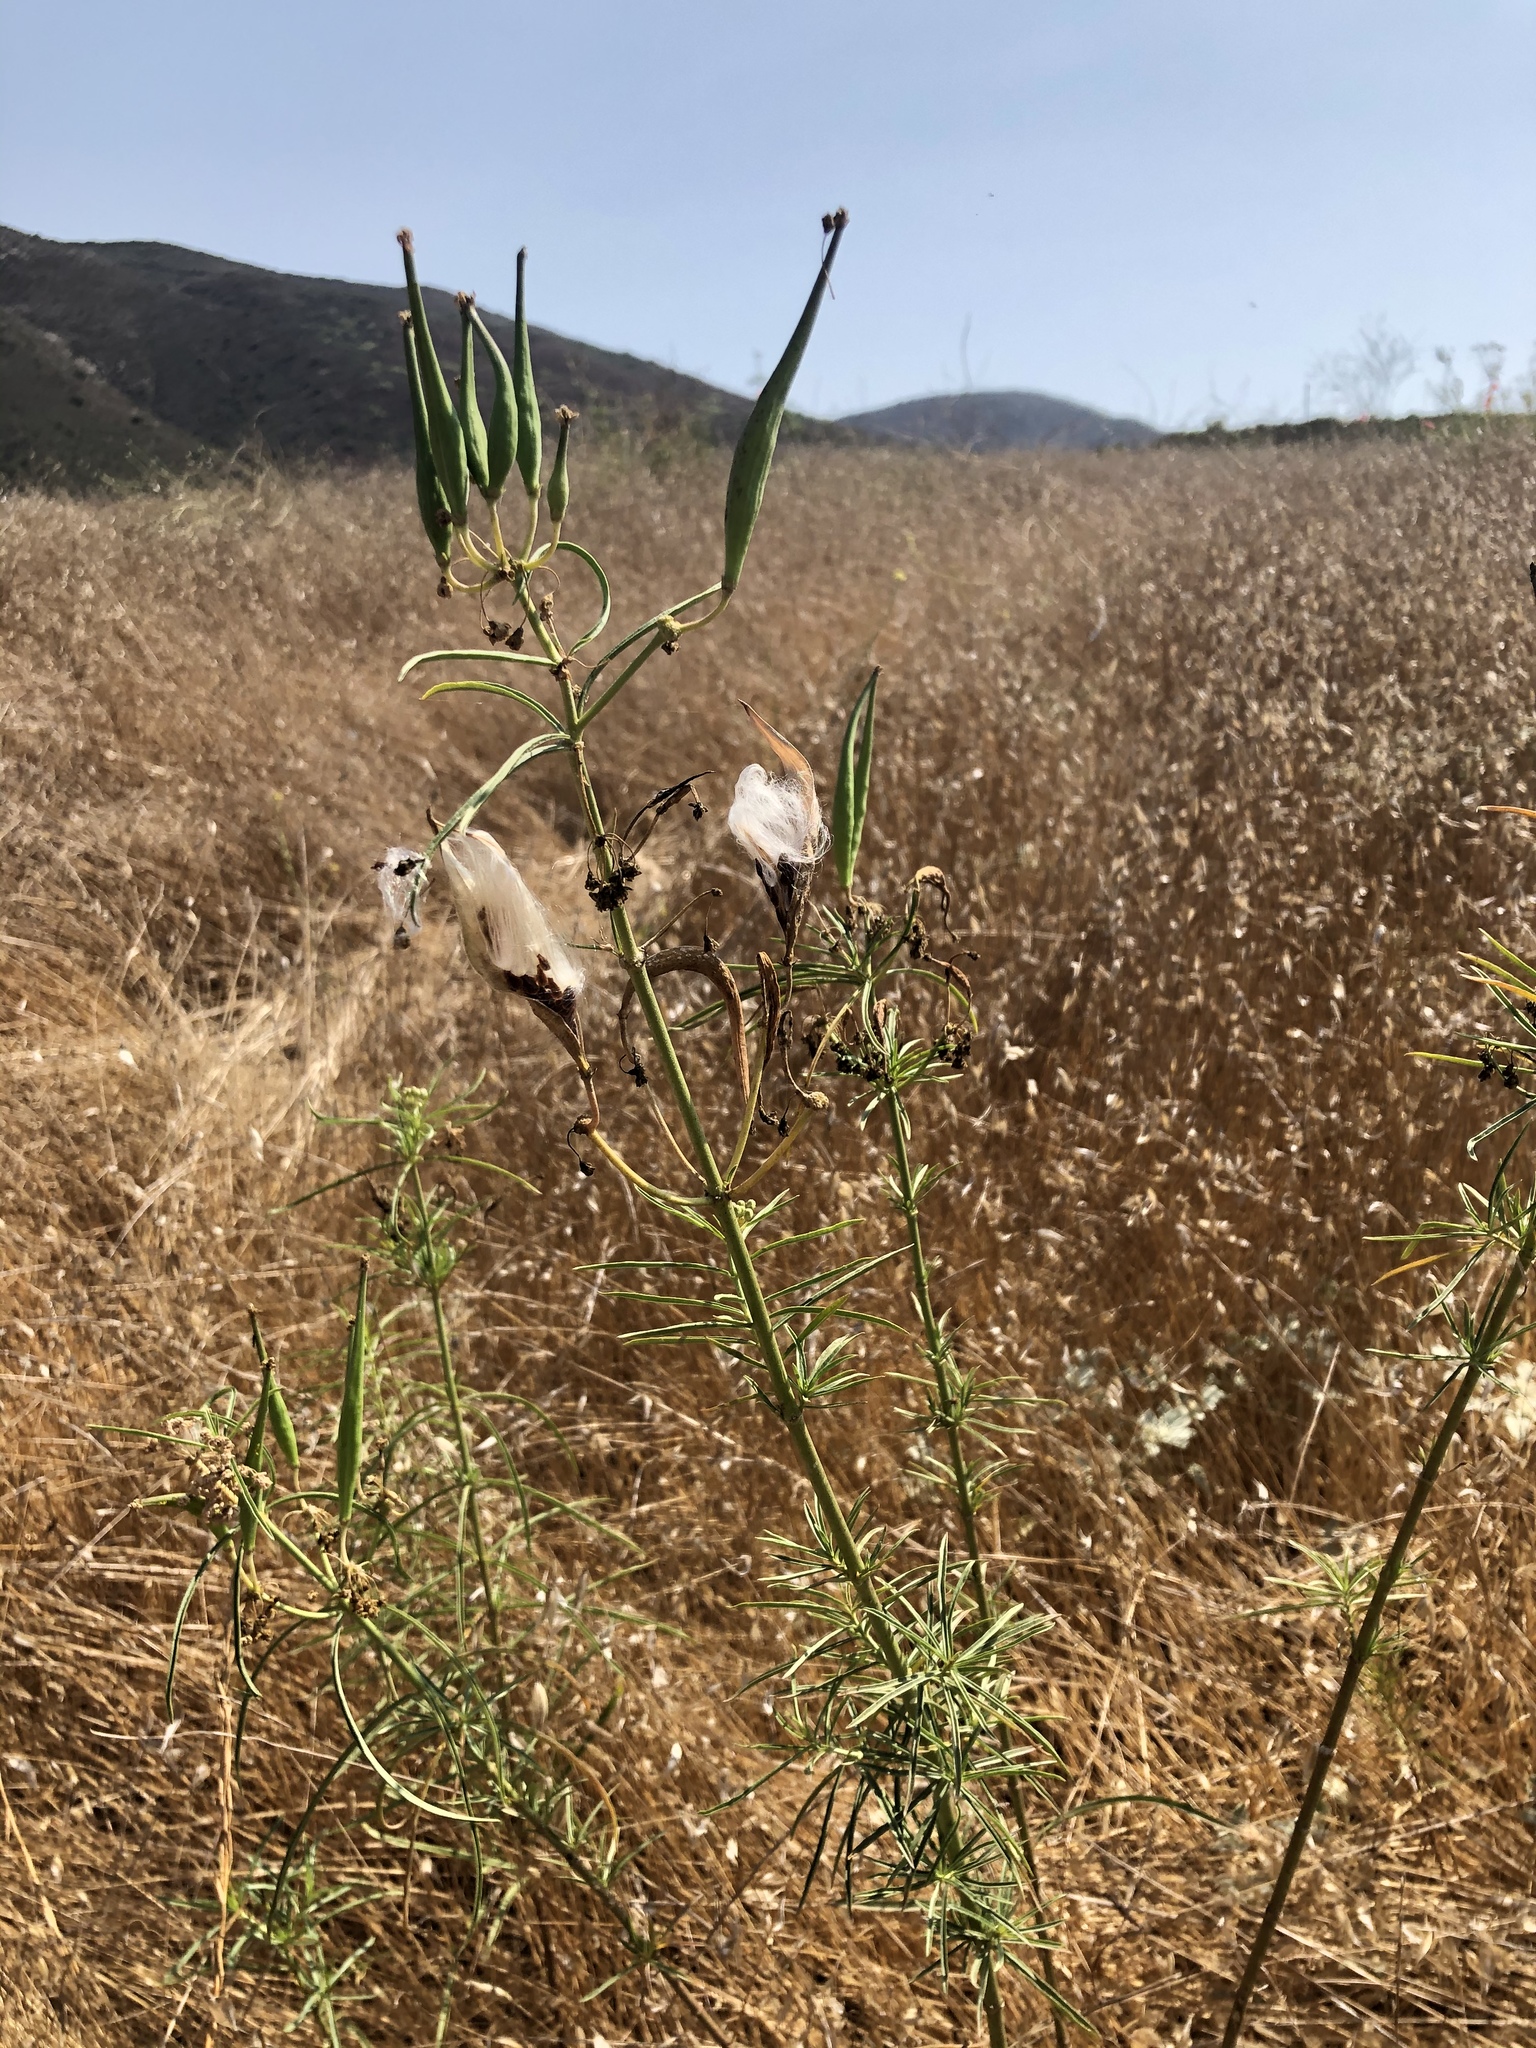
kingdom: Plantae
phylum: Tracheophyta
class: Magnoliopsida
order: Gentianales
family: Apocynaceae
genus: Asclepias
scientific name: Asclepias fascicularis
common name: Mexican milkweed
